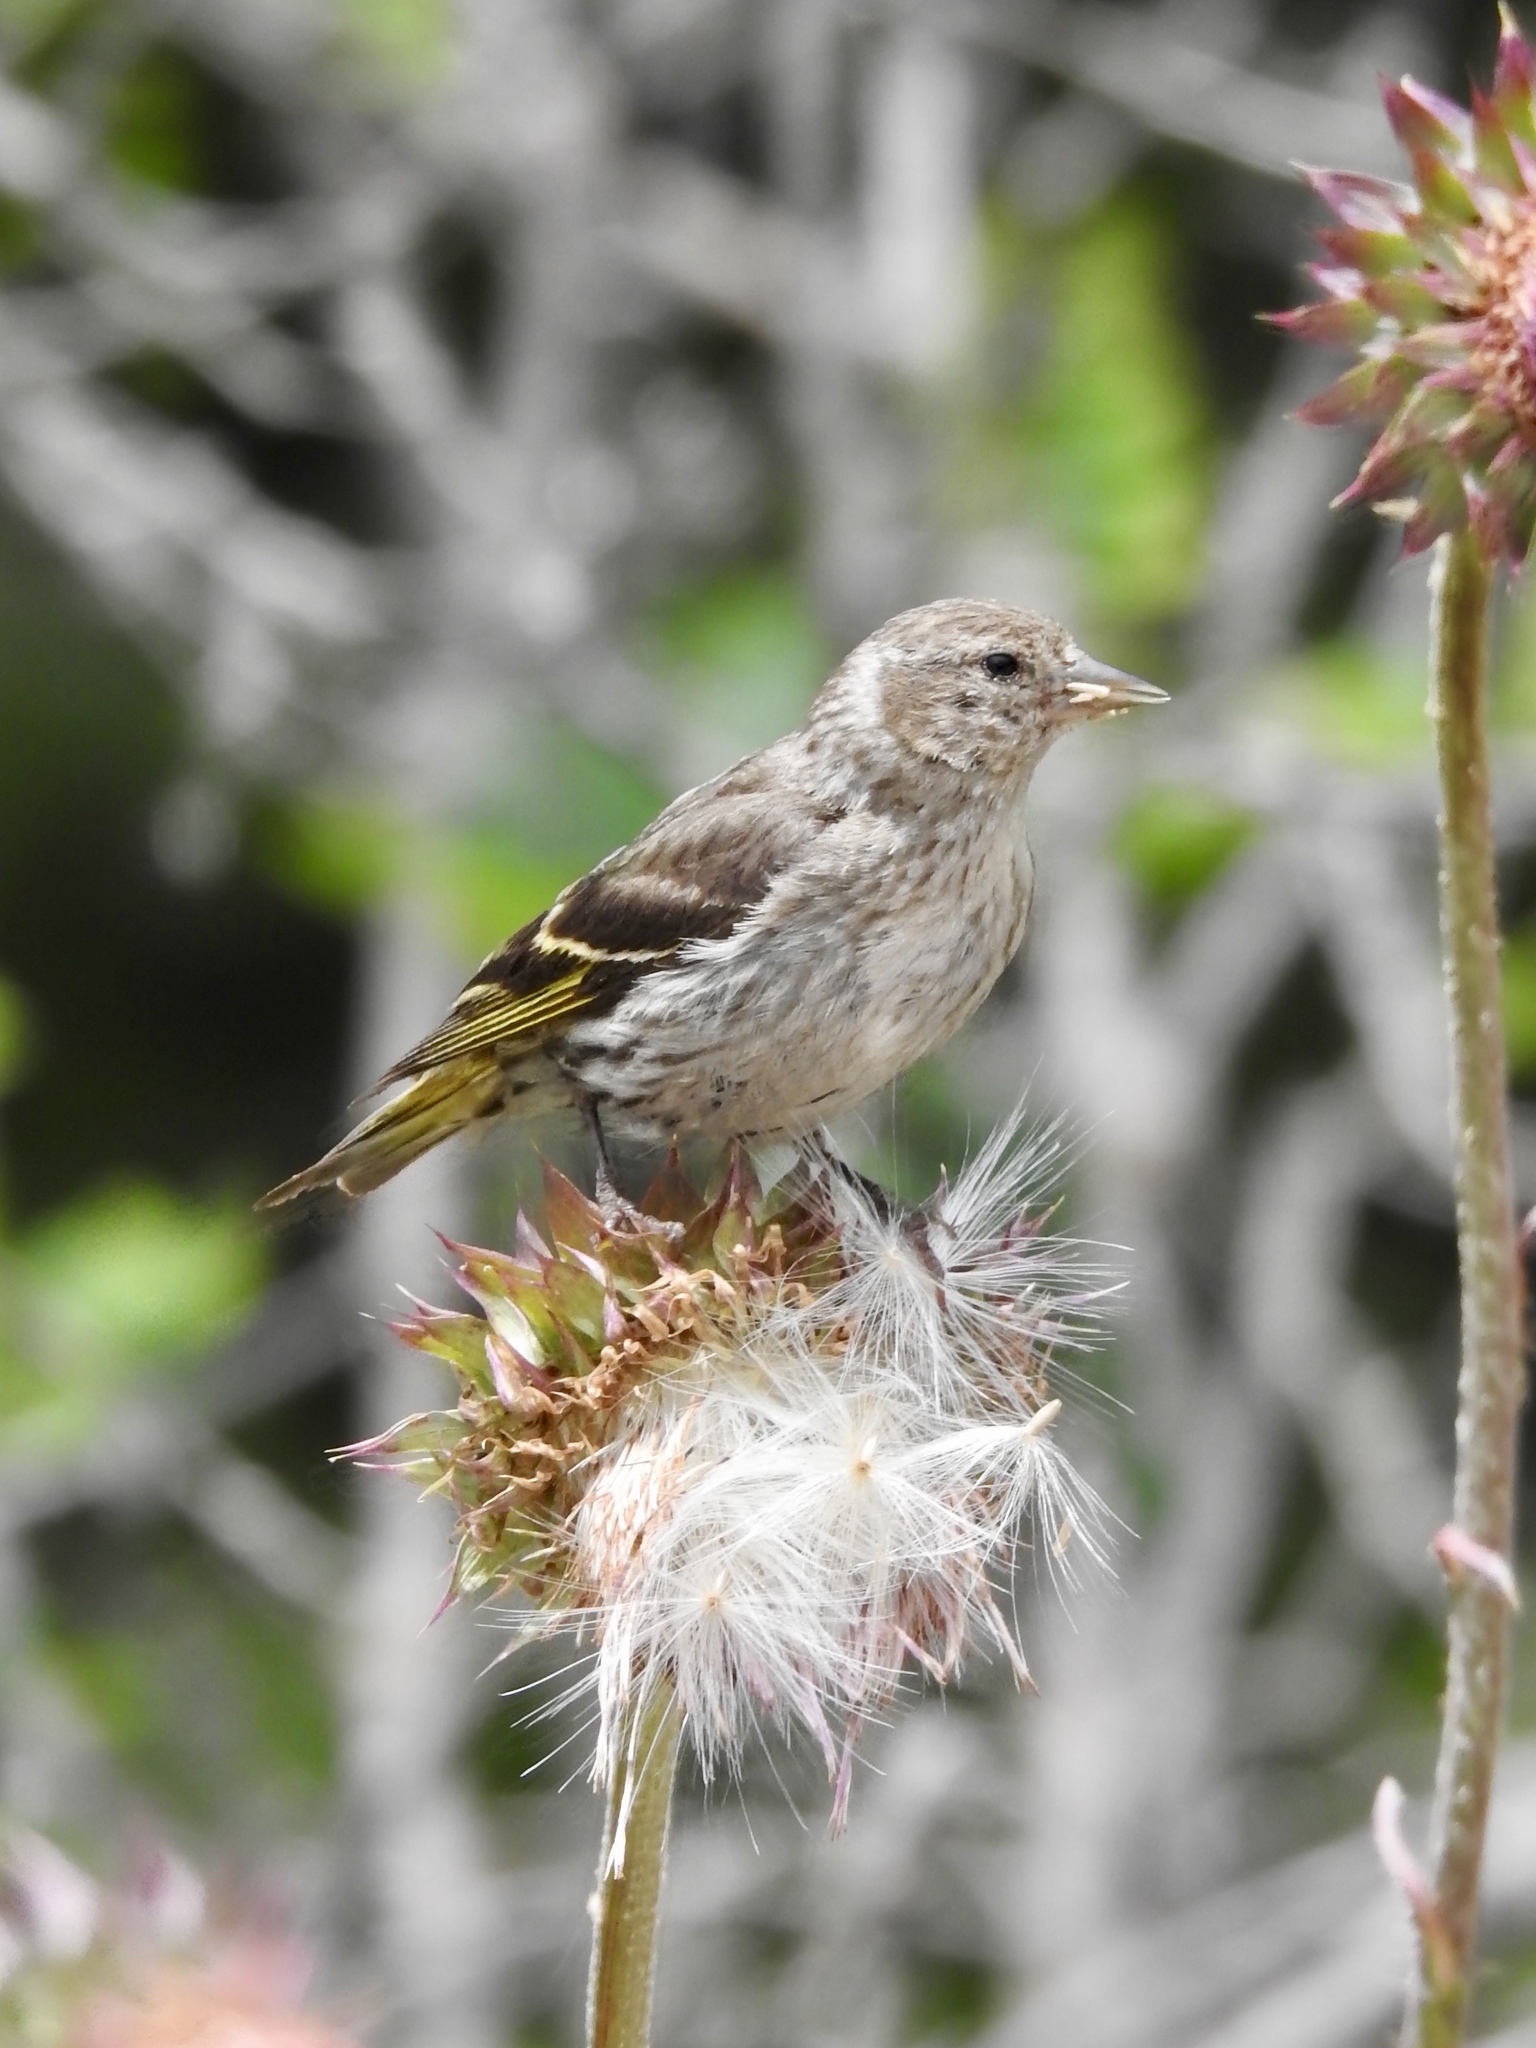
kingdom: Animalia
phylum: Chordata
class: Aves
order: Passeriformes
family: Fringillidae
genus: Spinus
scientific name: Spinus pinus
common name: Pine siskin
